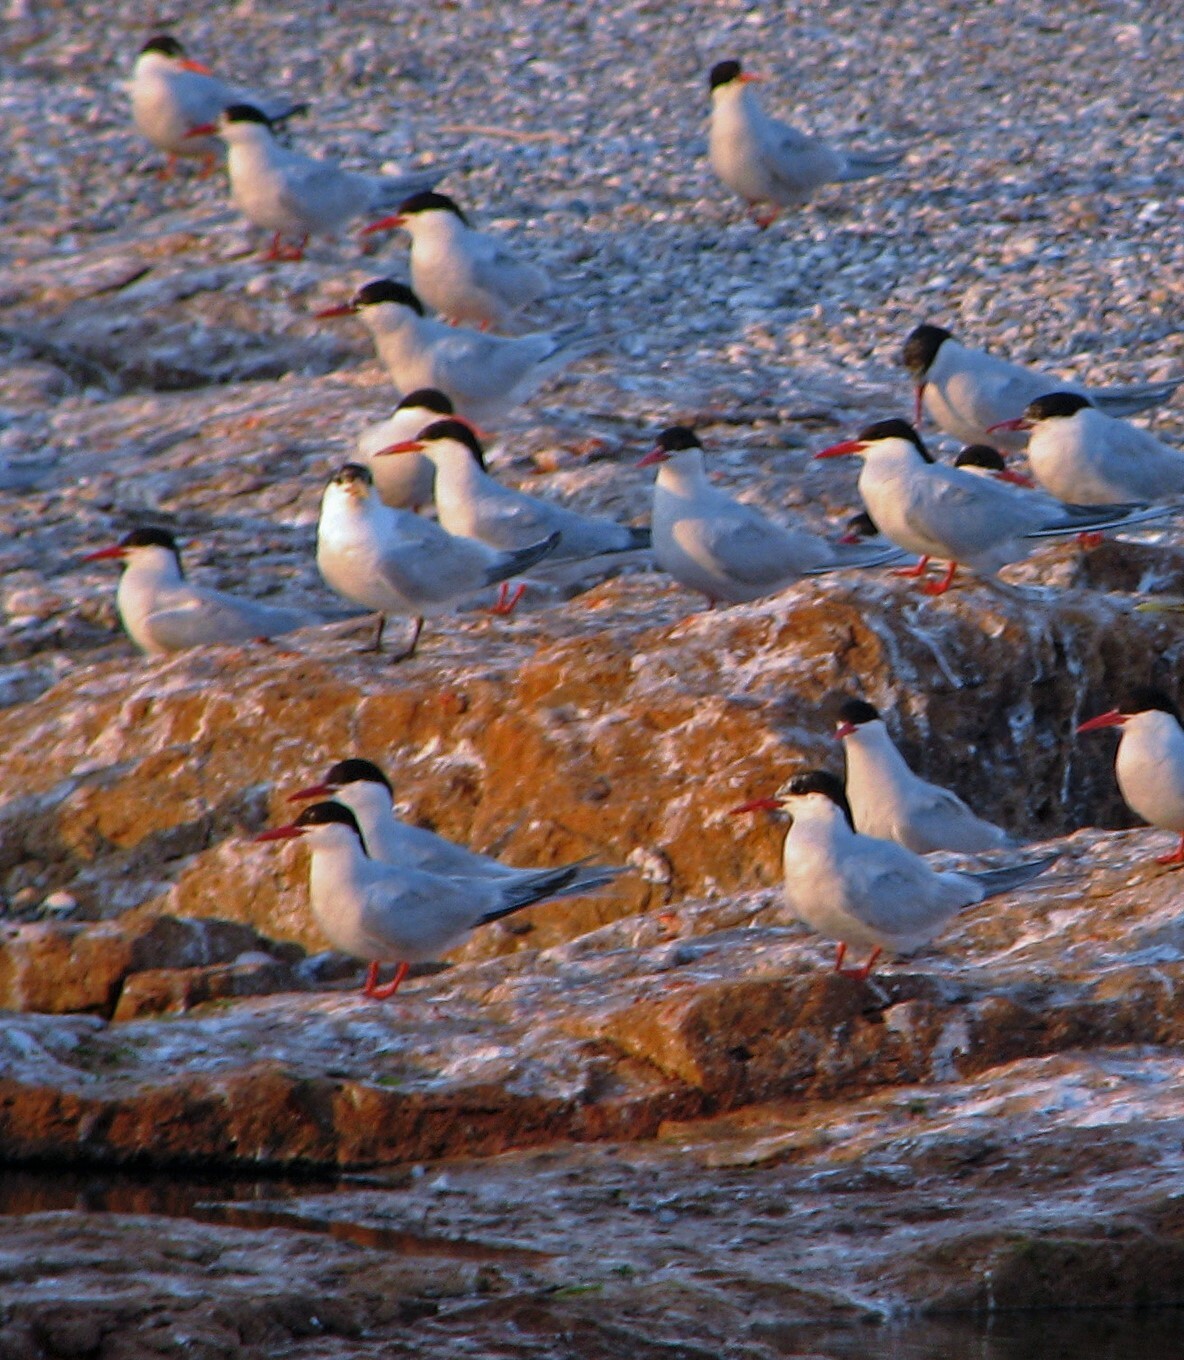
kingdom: Animalia
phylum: Chordata
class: Aves
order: Charadriiformes
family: Laridae
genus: Sterna
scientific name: Sterna hirundinacea
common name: South american tern
